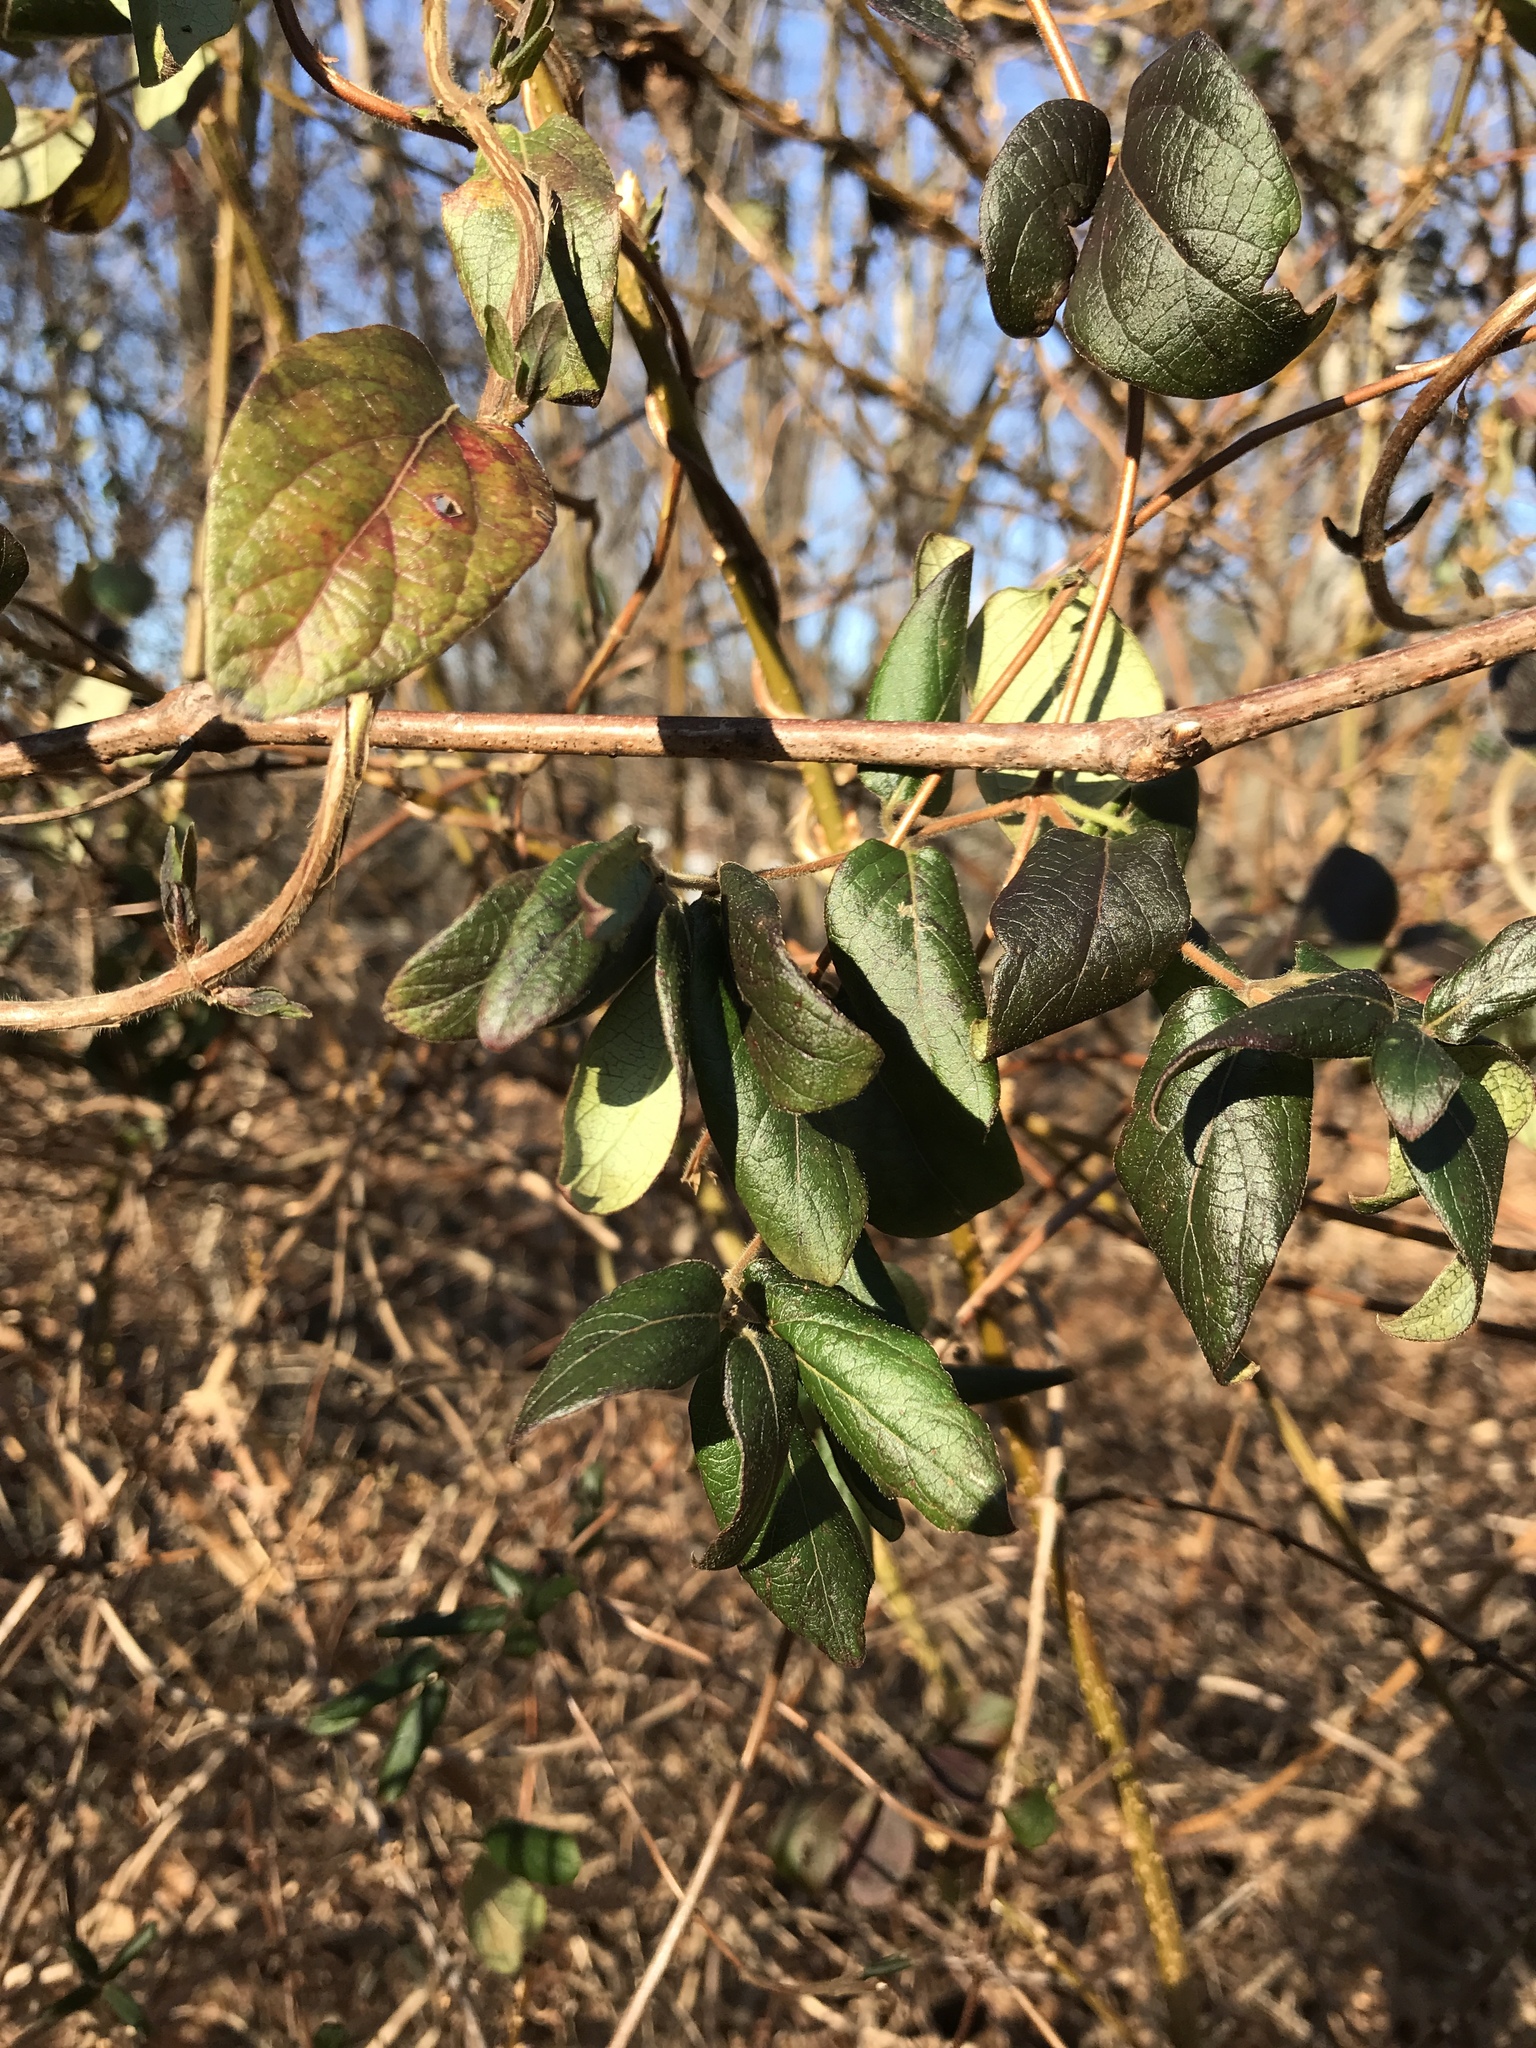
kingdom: Plantae
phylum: Tracheophyta
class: Magnoliopsida
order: Dipsacales
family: Caprifoliaceae
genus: Lonicera
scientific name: Lonicera japonica
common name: Japanese honeysuckle
